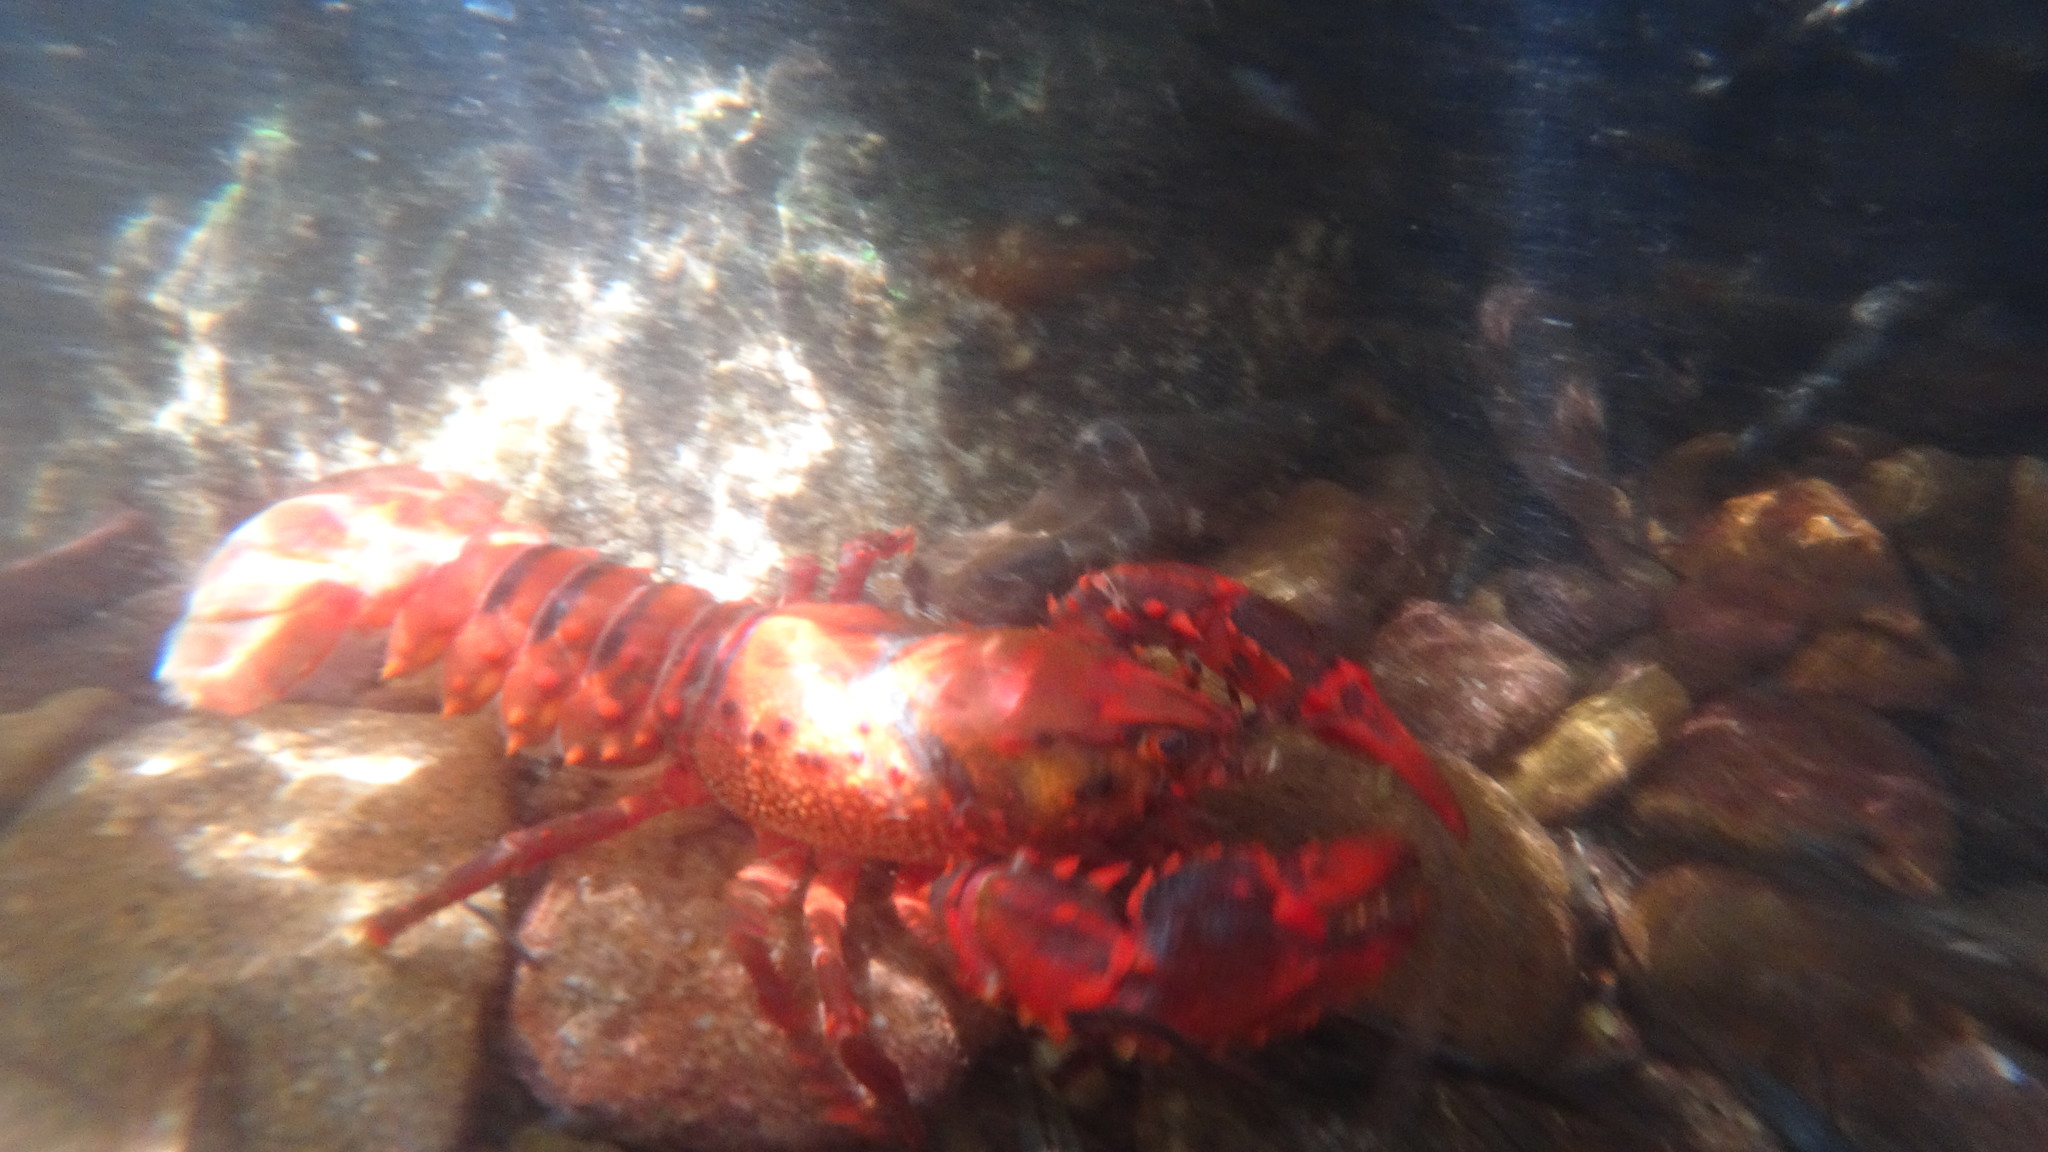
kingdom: Animalia
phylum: Arthropoda
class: Malacostraca
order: Decapoda
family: Parastacidae
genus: Euastacus
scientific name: Euastacus australasiensis
